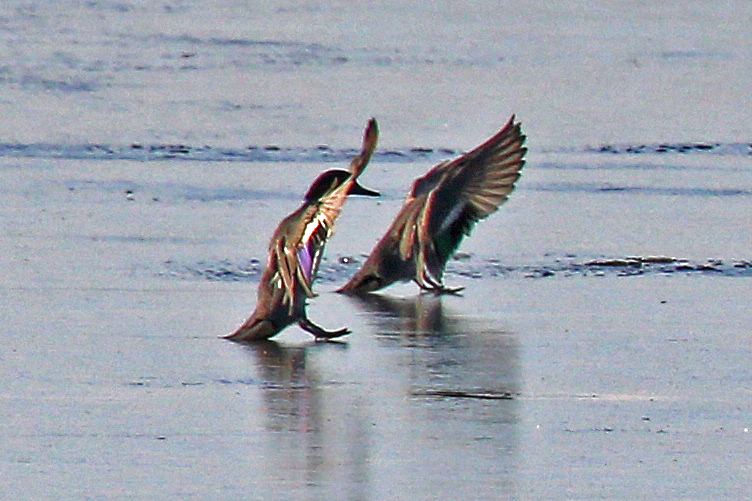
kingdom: Animalia
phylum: Chordata
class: Aves
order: Anseriformes
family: Anatidae
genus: Anas
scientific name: Anas crecca
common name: Eurasian teal
